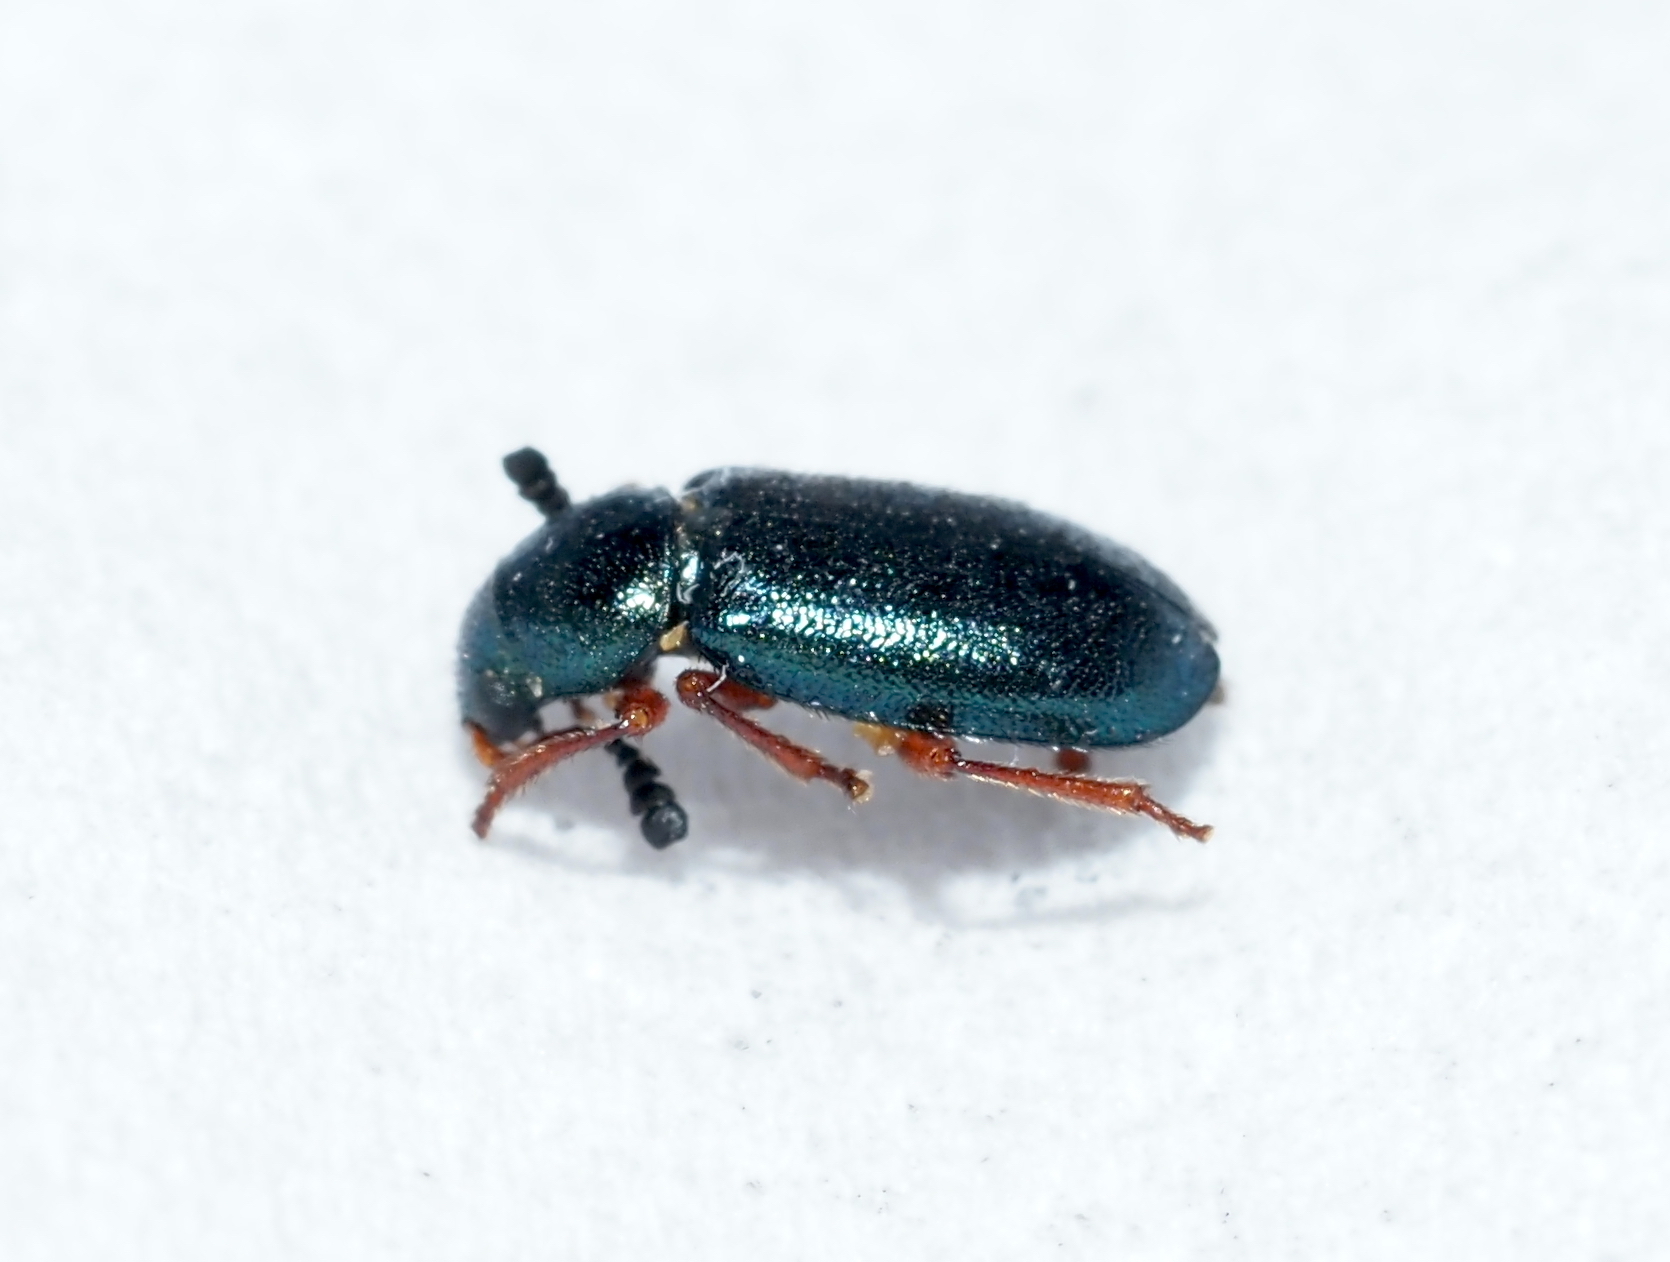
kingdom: Animalia
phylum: Arthropoda
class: Insecta
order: Coleoptera
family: Cleridae
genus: Necrobia
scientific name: Necrobia rufipes
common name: Red-legged ham beetle
